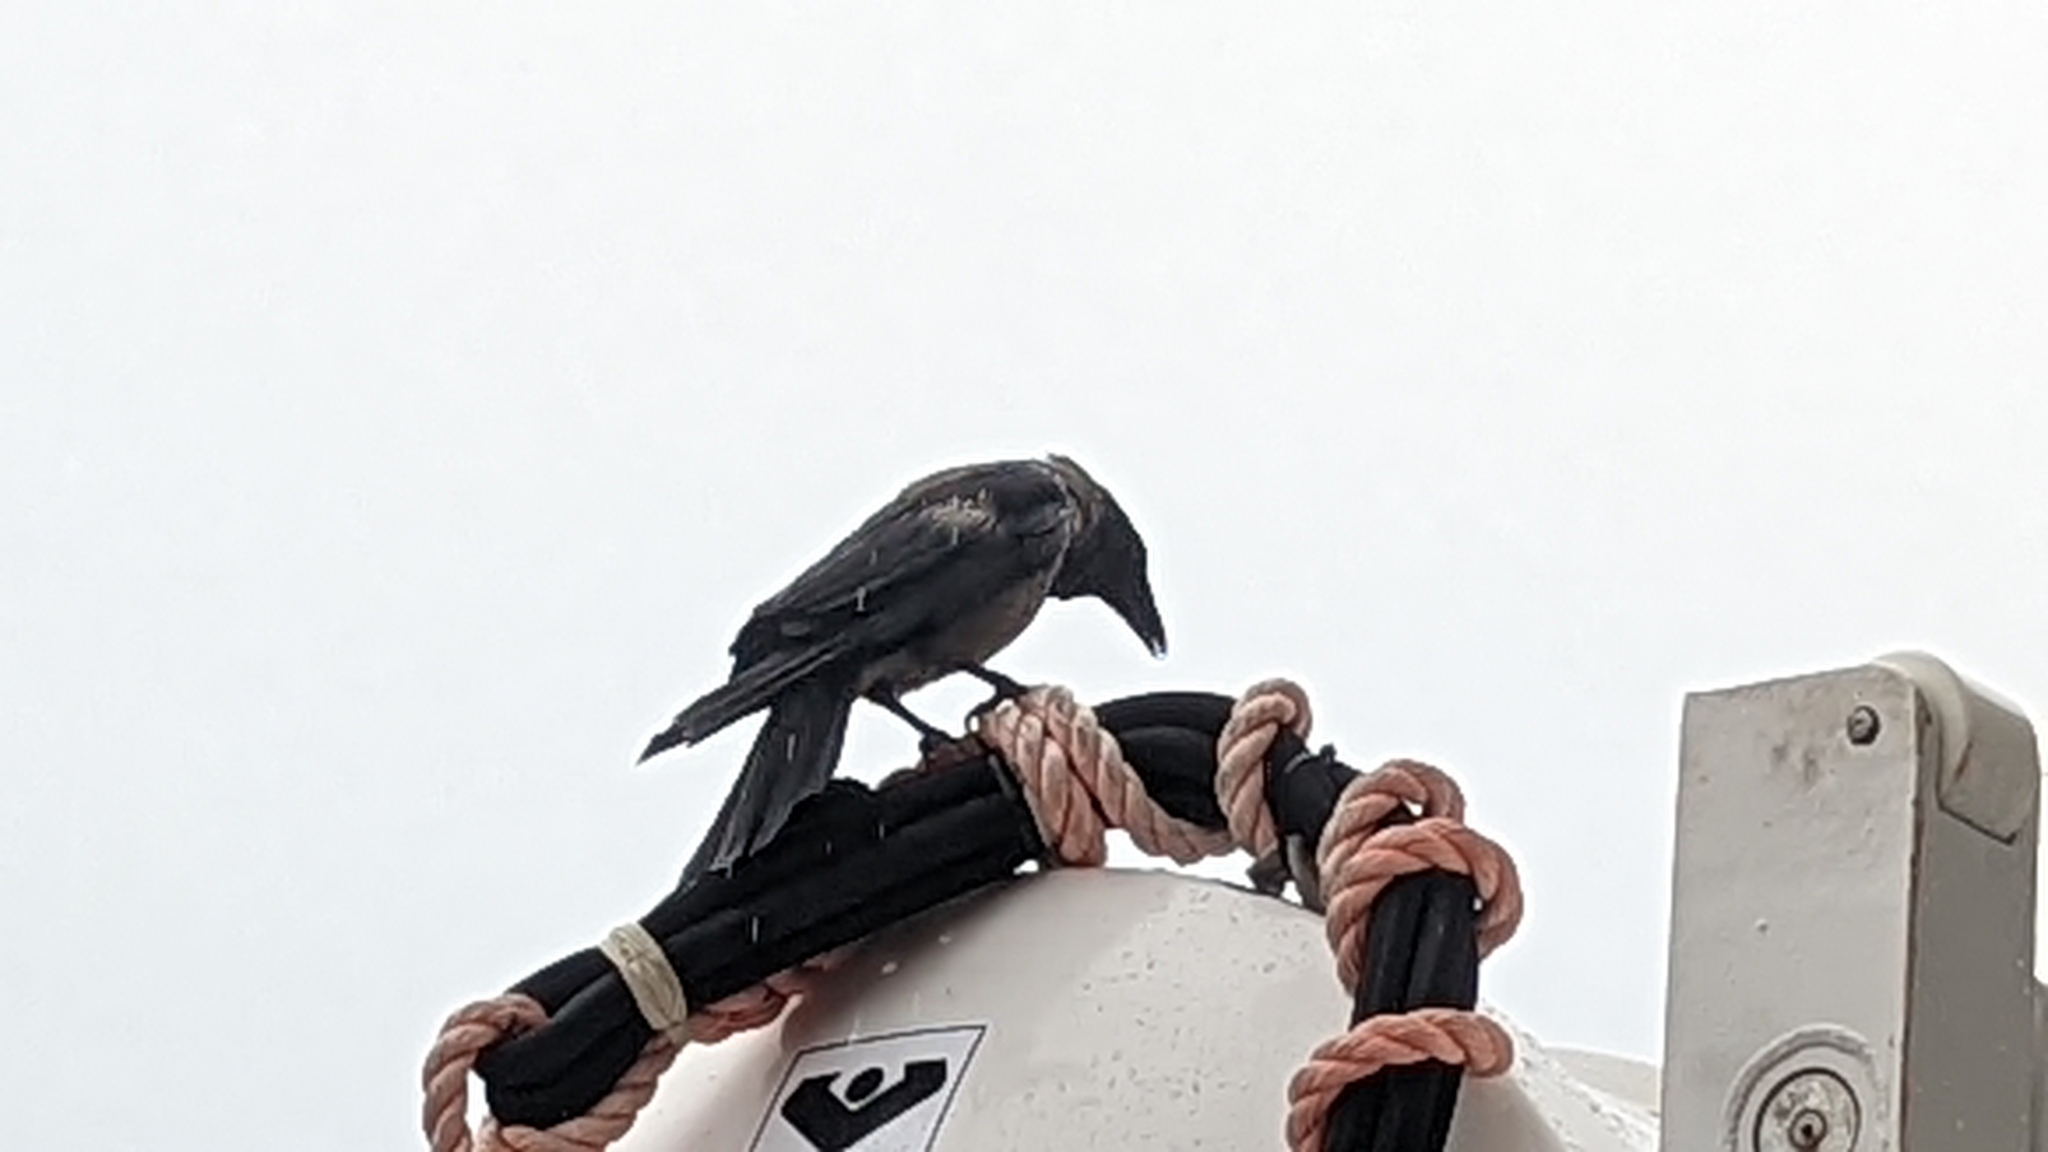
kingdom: Animalia
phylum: Chordata
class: Aves
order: Passeriformes
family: Corvidae
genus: Corvus
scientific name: Corvus cornix
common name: Hooded crow
